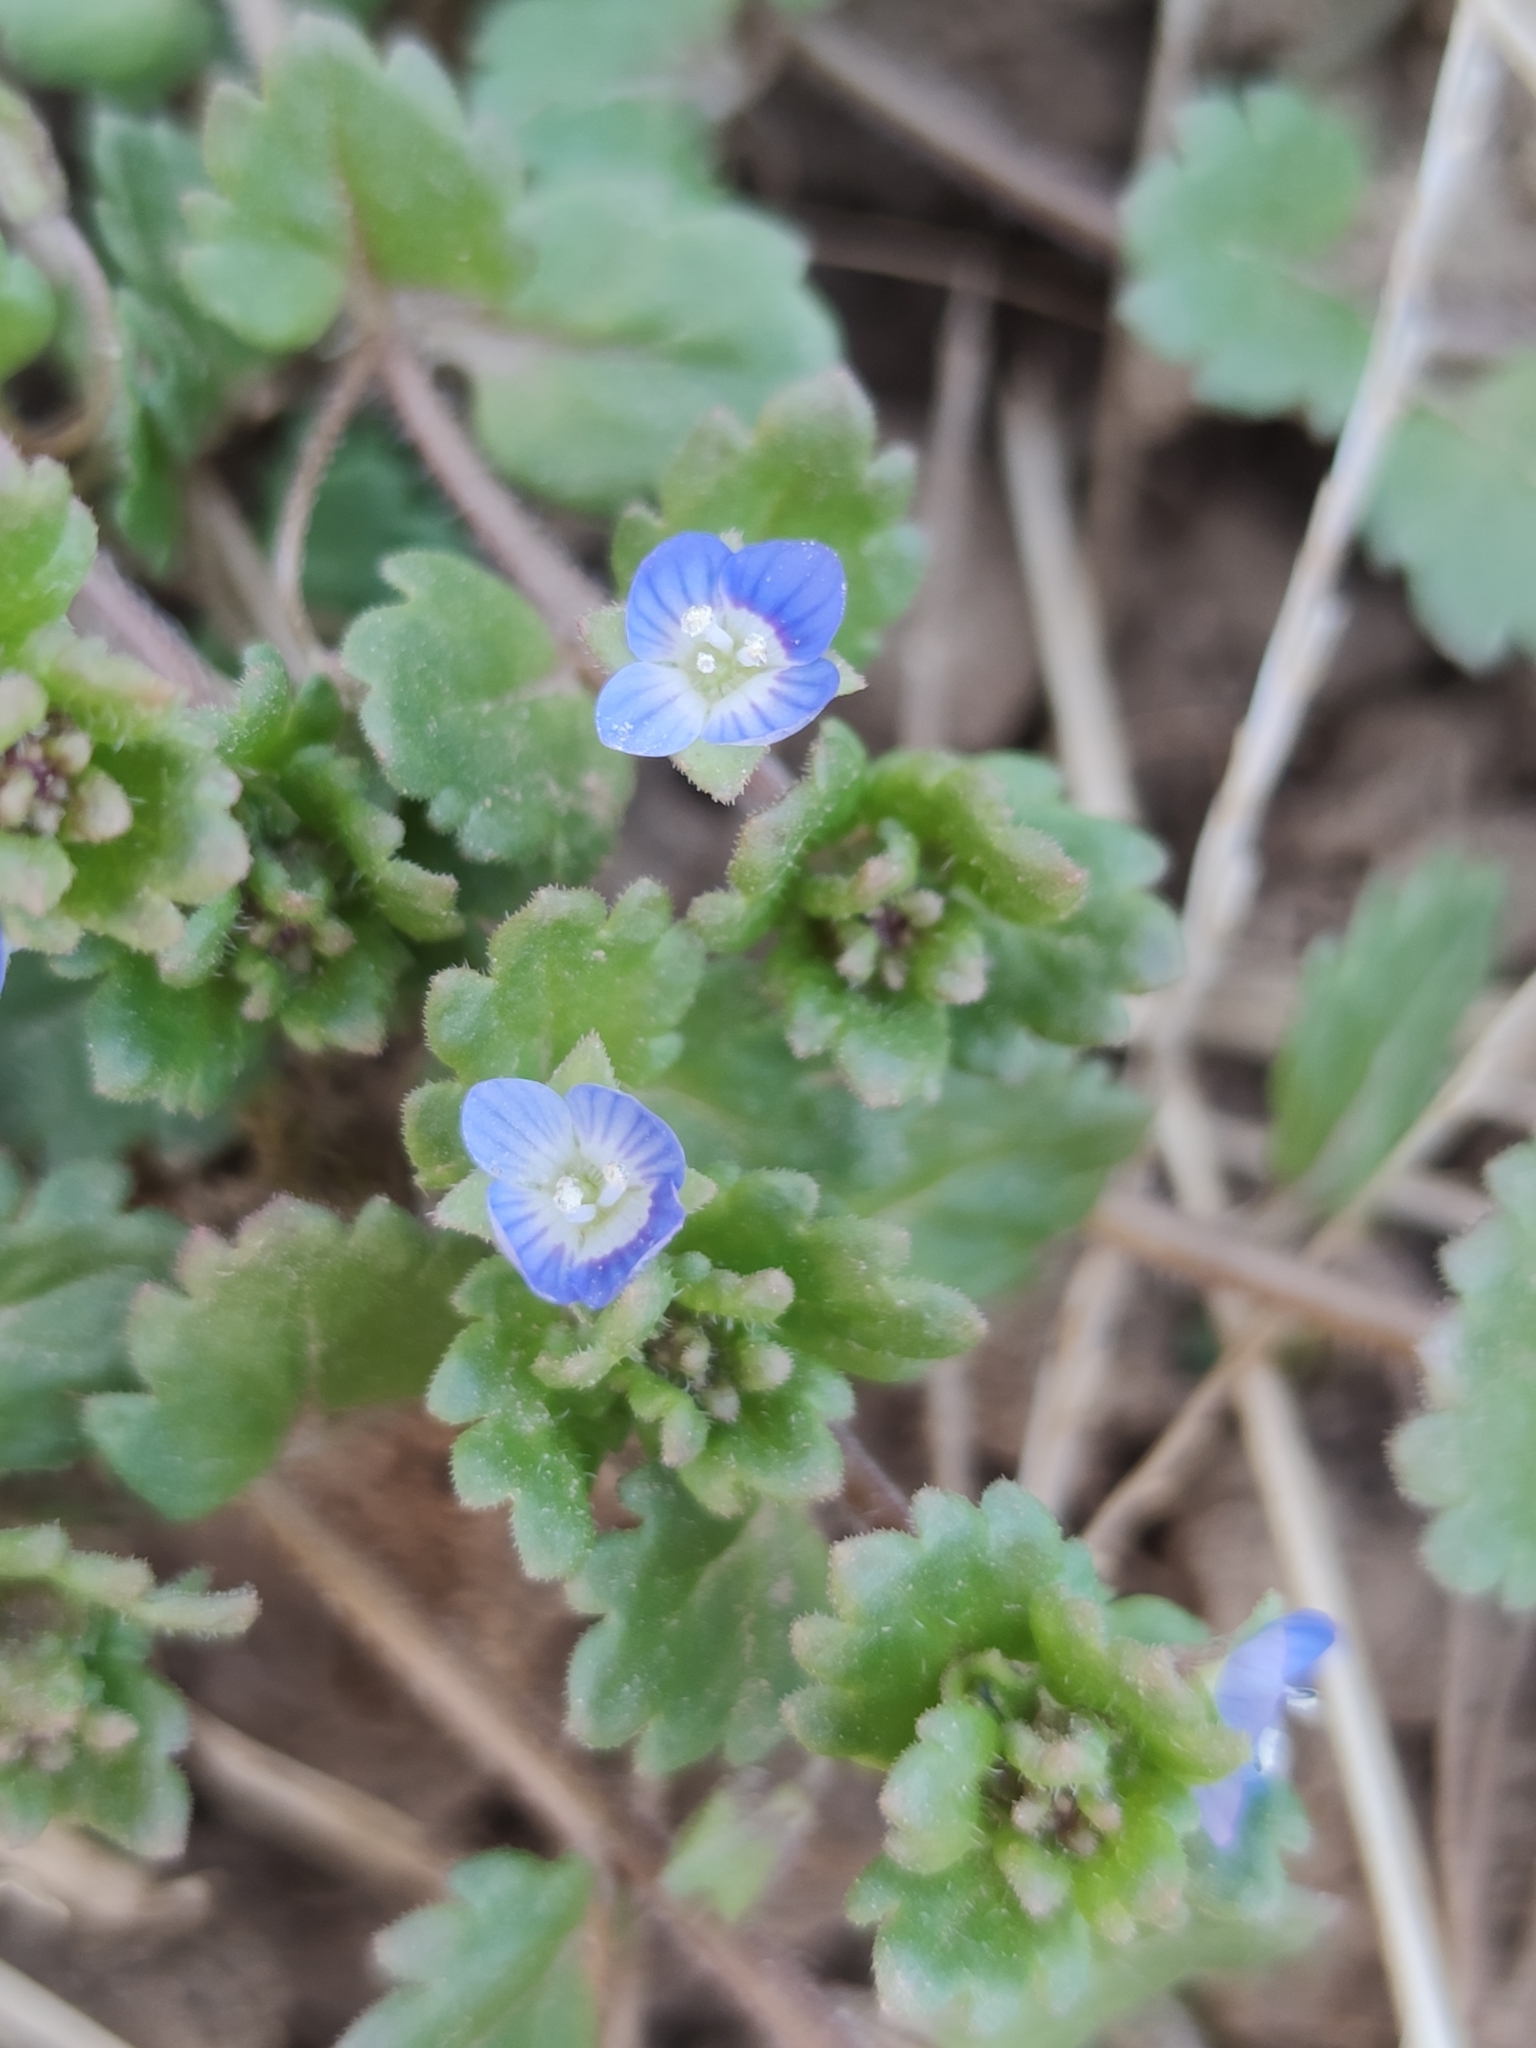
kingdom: Plantae
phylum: Tracheophyta
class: Magnoliopsida
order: Lamiales
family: Plantaginaceae
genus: Veronica
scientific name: Veronica persica
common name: Common field-speedwell
